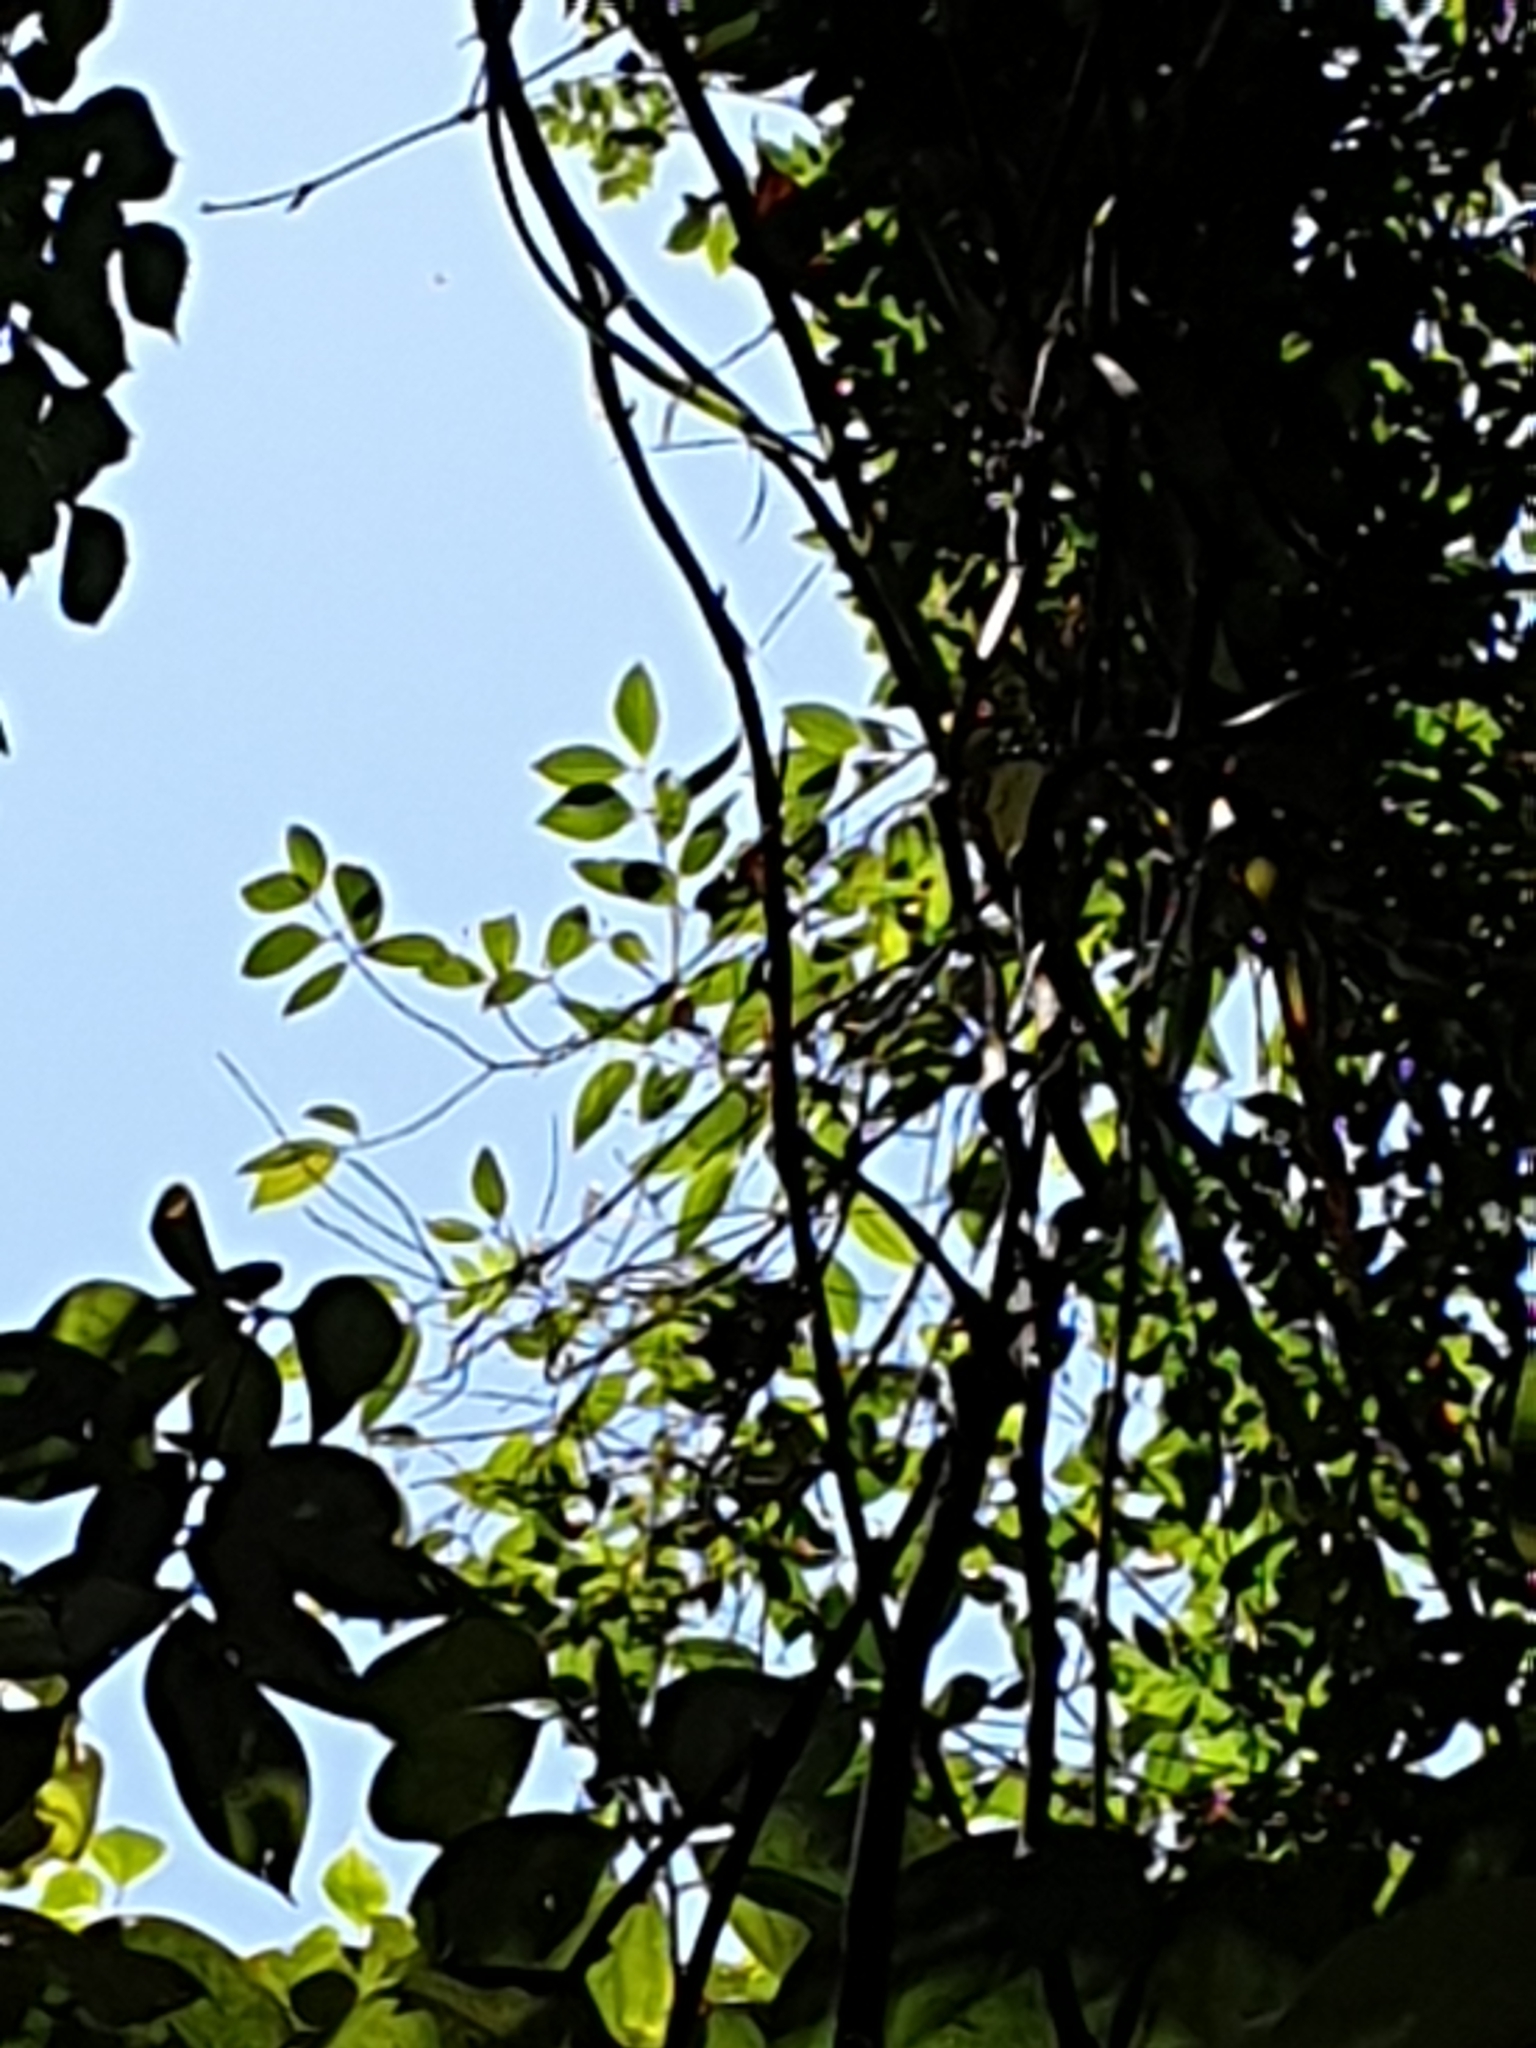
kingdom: Plantae
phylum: Tracheophyta
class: Magnoliopsida
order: Myrtales
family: Myrtaceae
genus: Rhodamnia
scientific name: Rhodamnia rubescens
